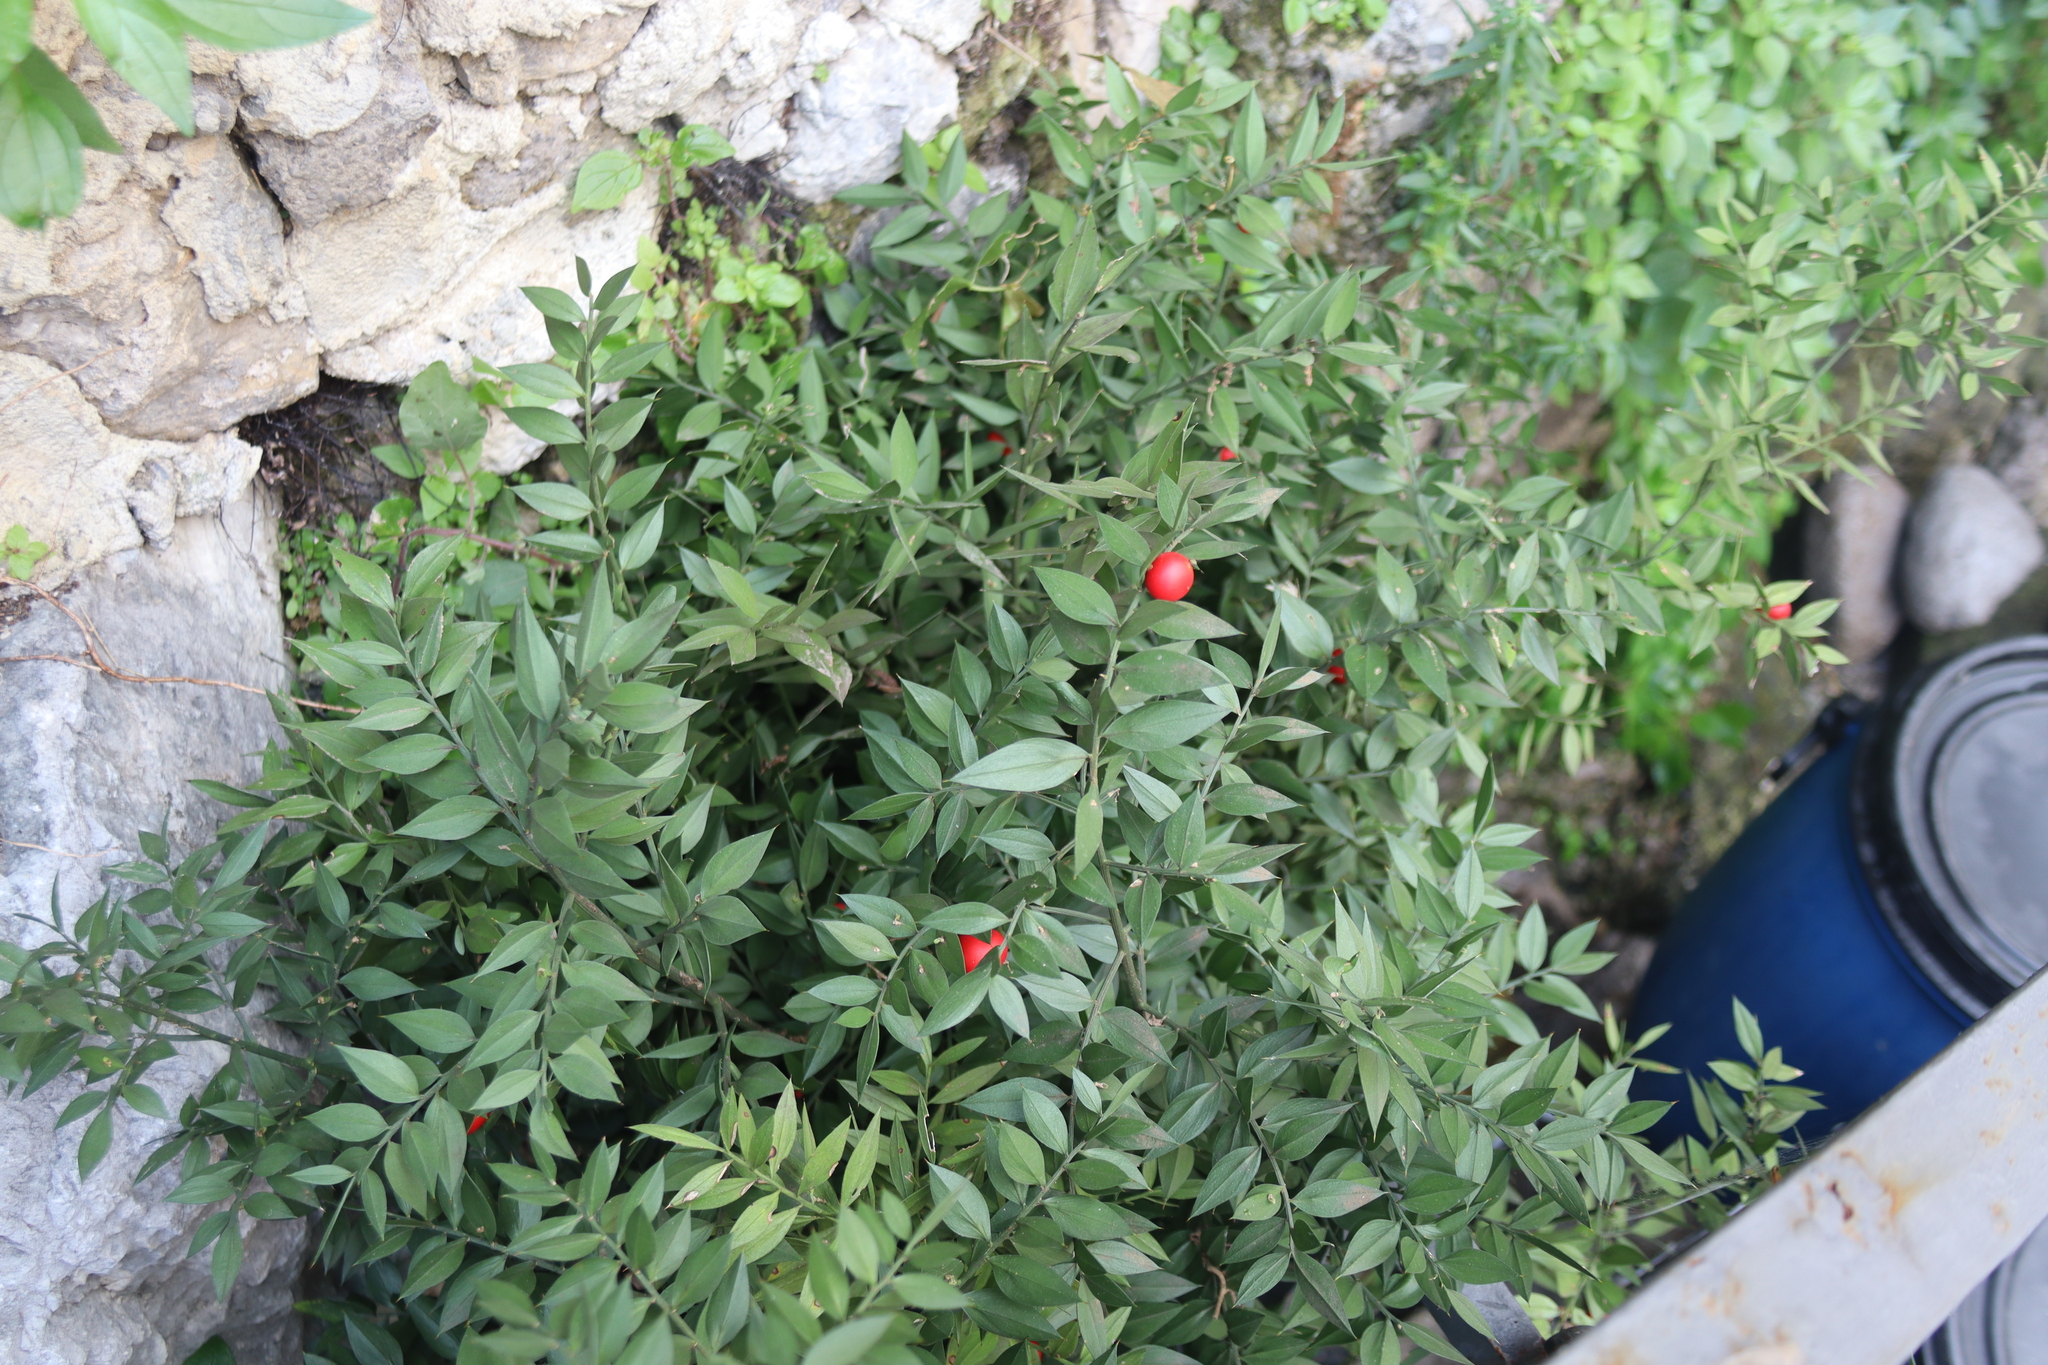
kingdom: Plantae
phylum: Tracheophyta
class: Liliopsida
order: Asparagales
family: Asparagaceae
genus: Ruscus
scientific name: Ruscus aculeatus
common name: Butcher's-broom
